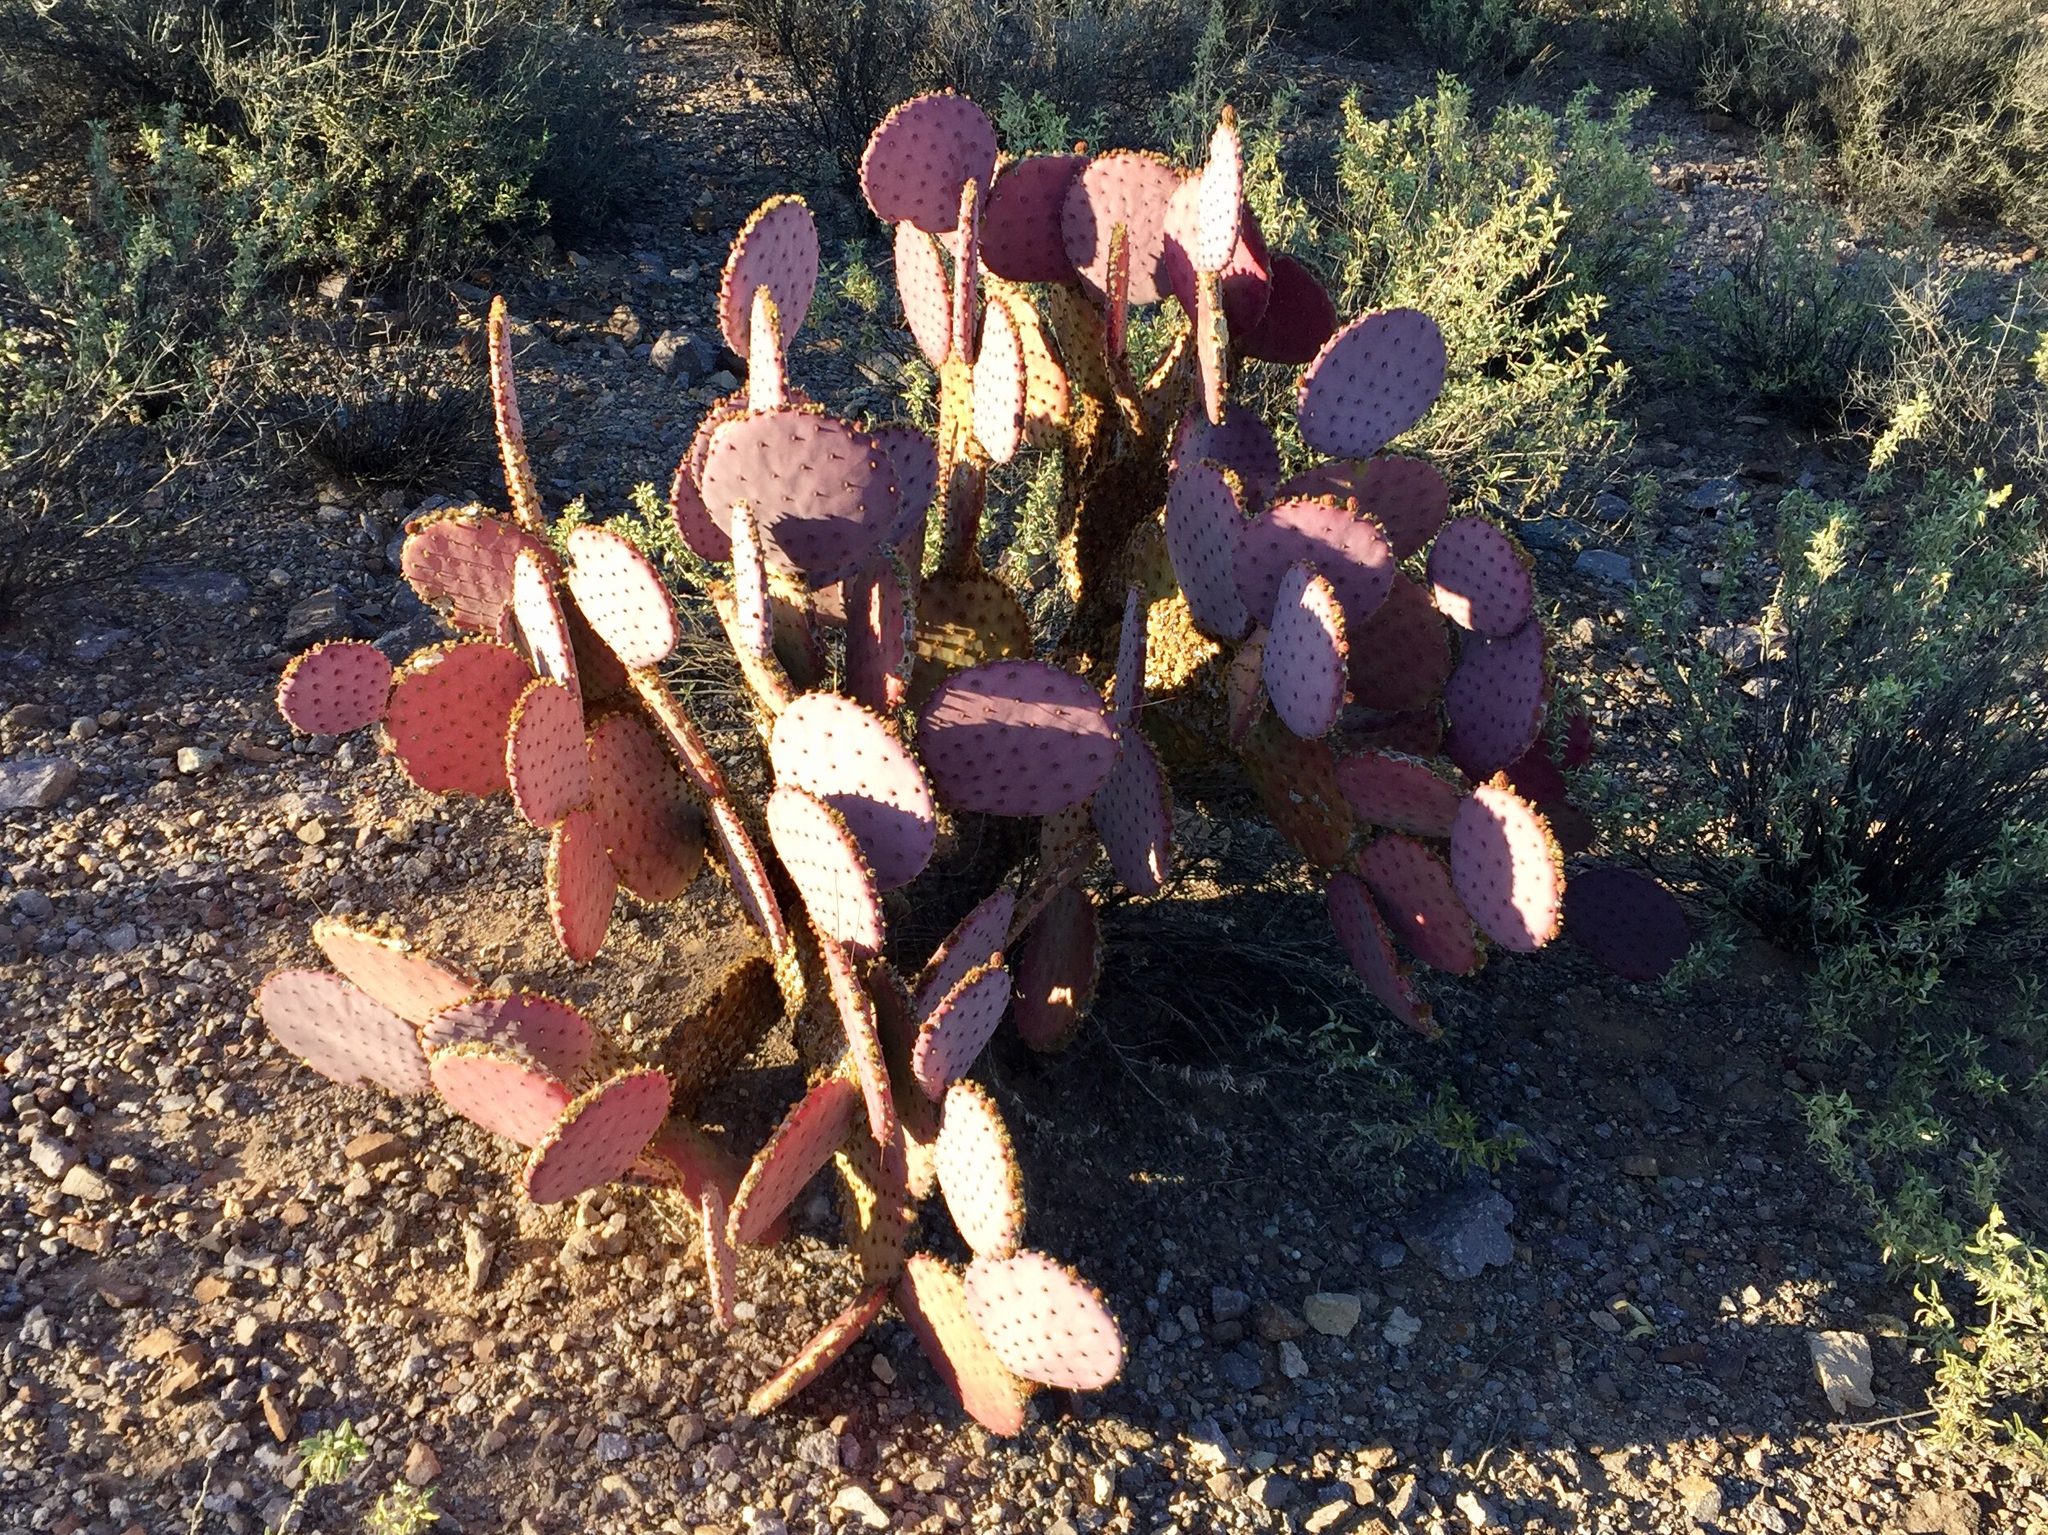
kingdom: Plantae
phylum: Tracheophyta
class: Magnoliopsida
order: Caryophyllales
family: Cactaceae
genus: Opuntia
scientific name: Opuntia gosseliniana
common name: Violet prickly-pear
